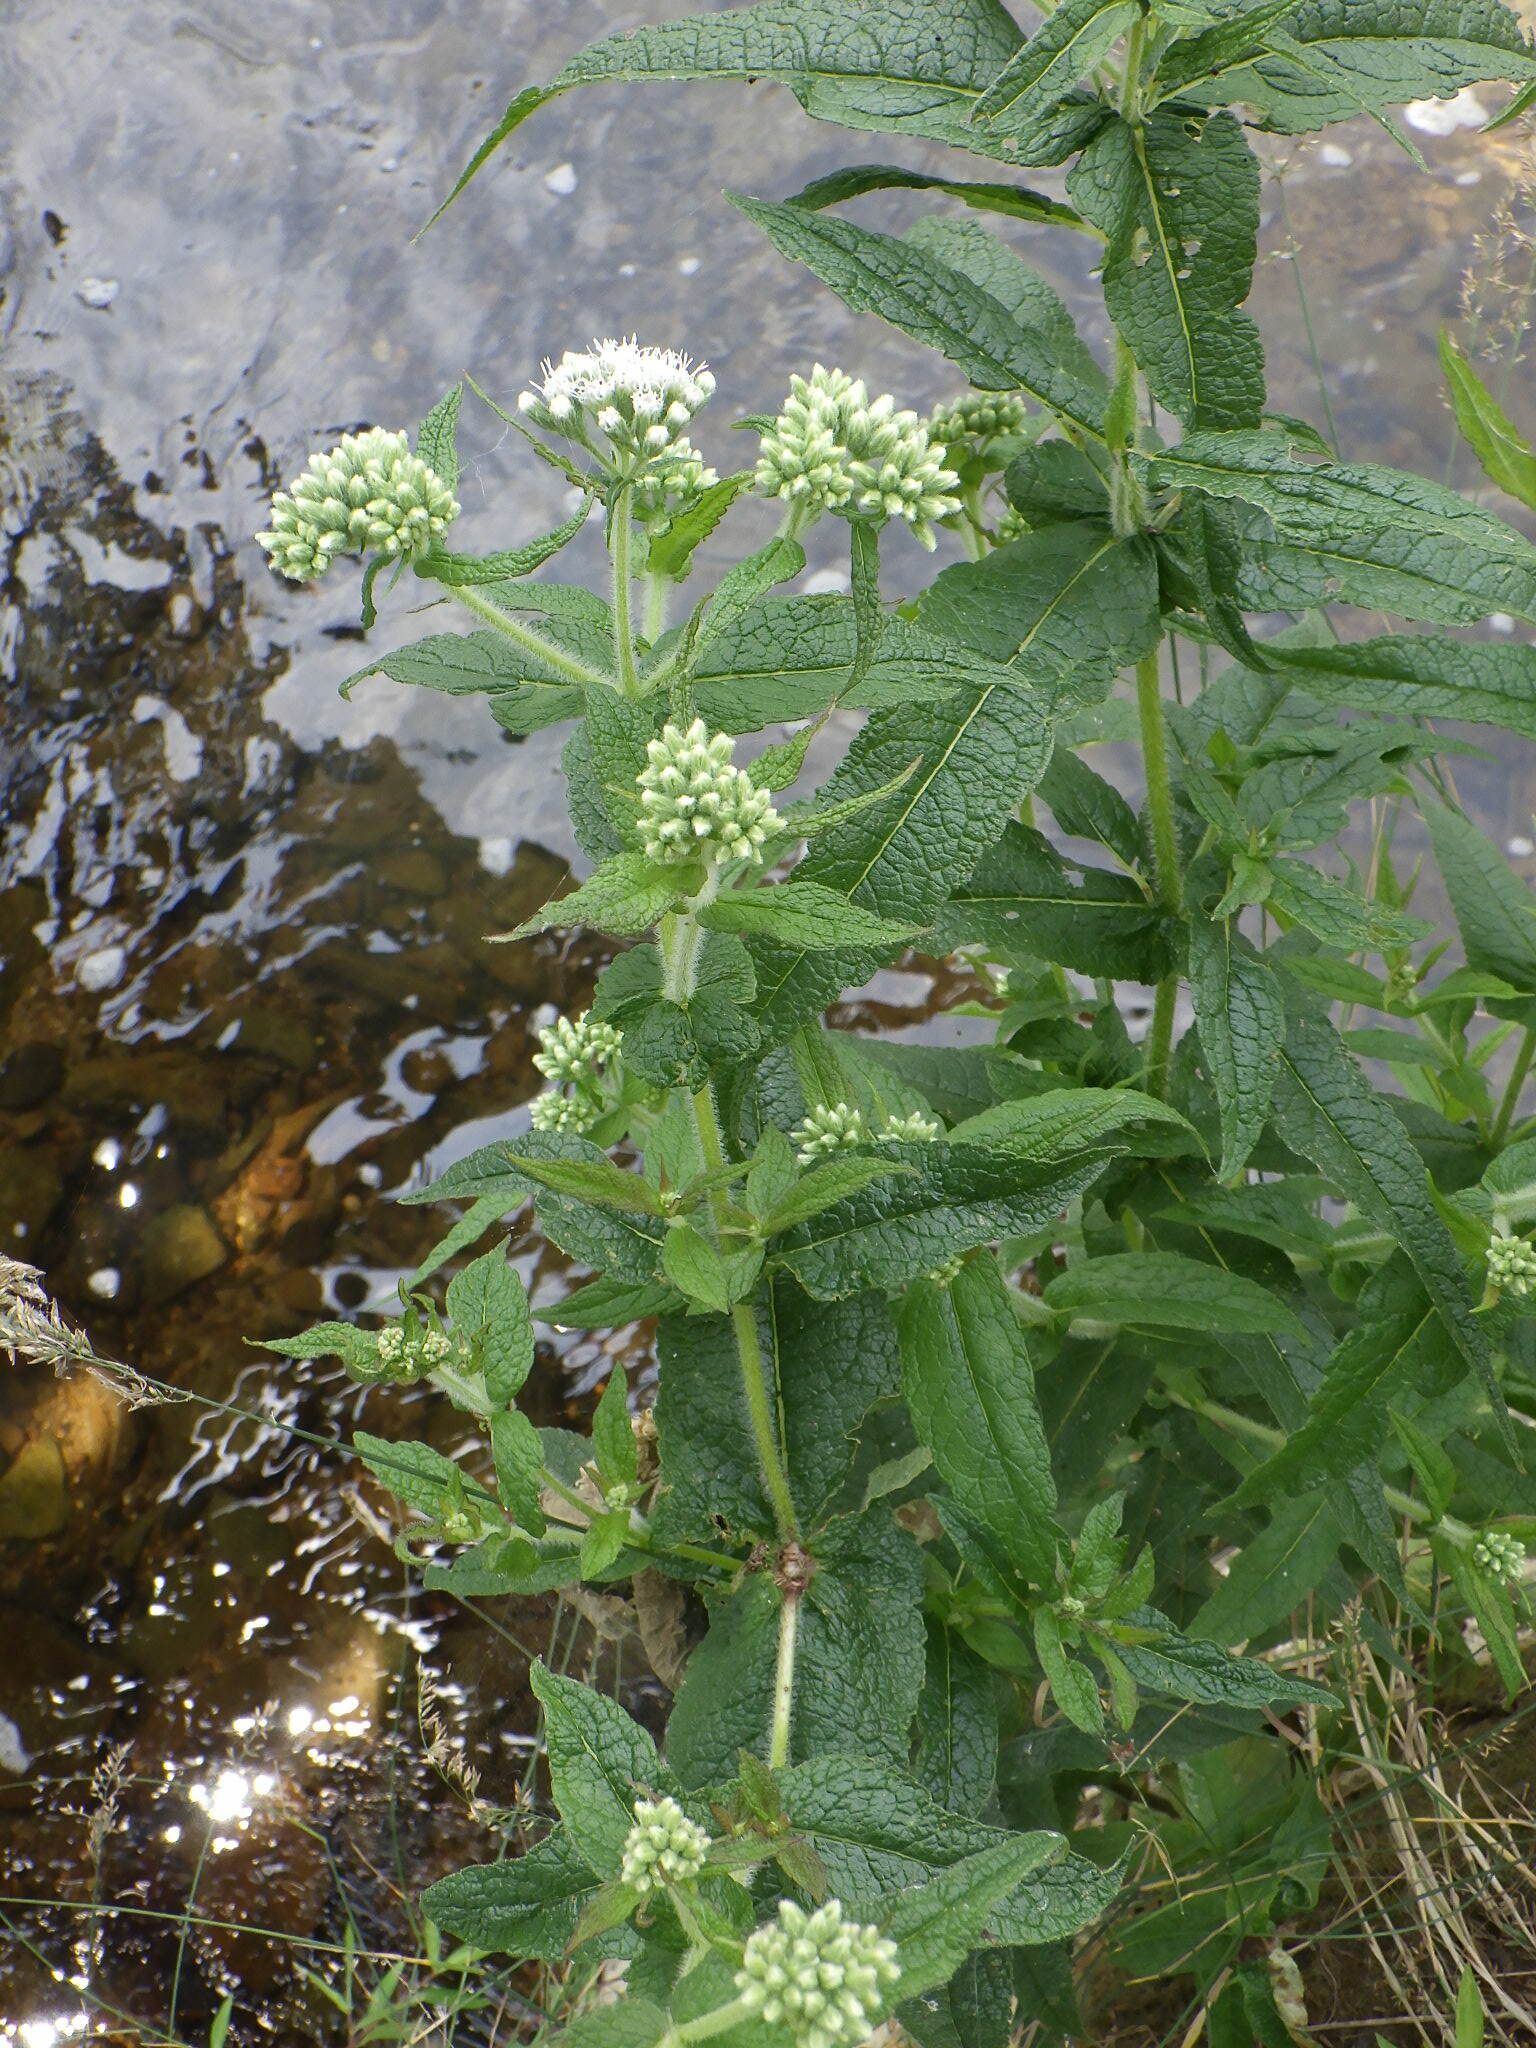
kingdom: Plantae
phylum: Tracheophyta
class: Magnoliopsida
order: Asterales
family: Asteraceae
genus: Eupatorium
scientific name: Eupatorium perfoliatum
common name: Boneset
